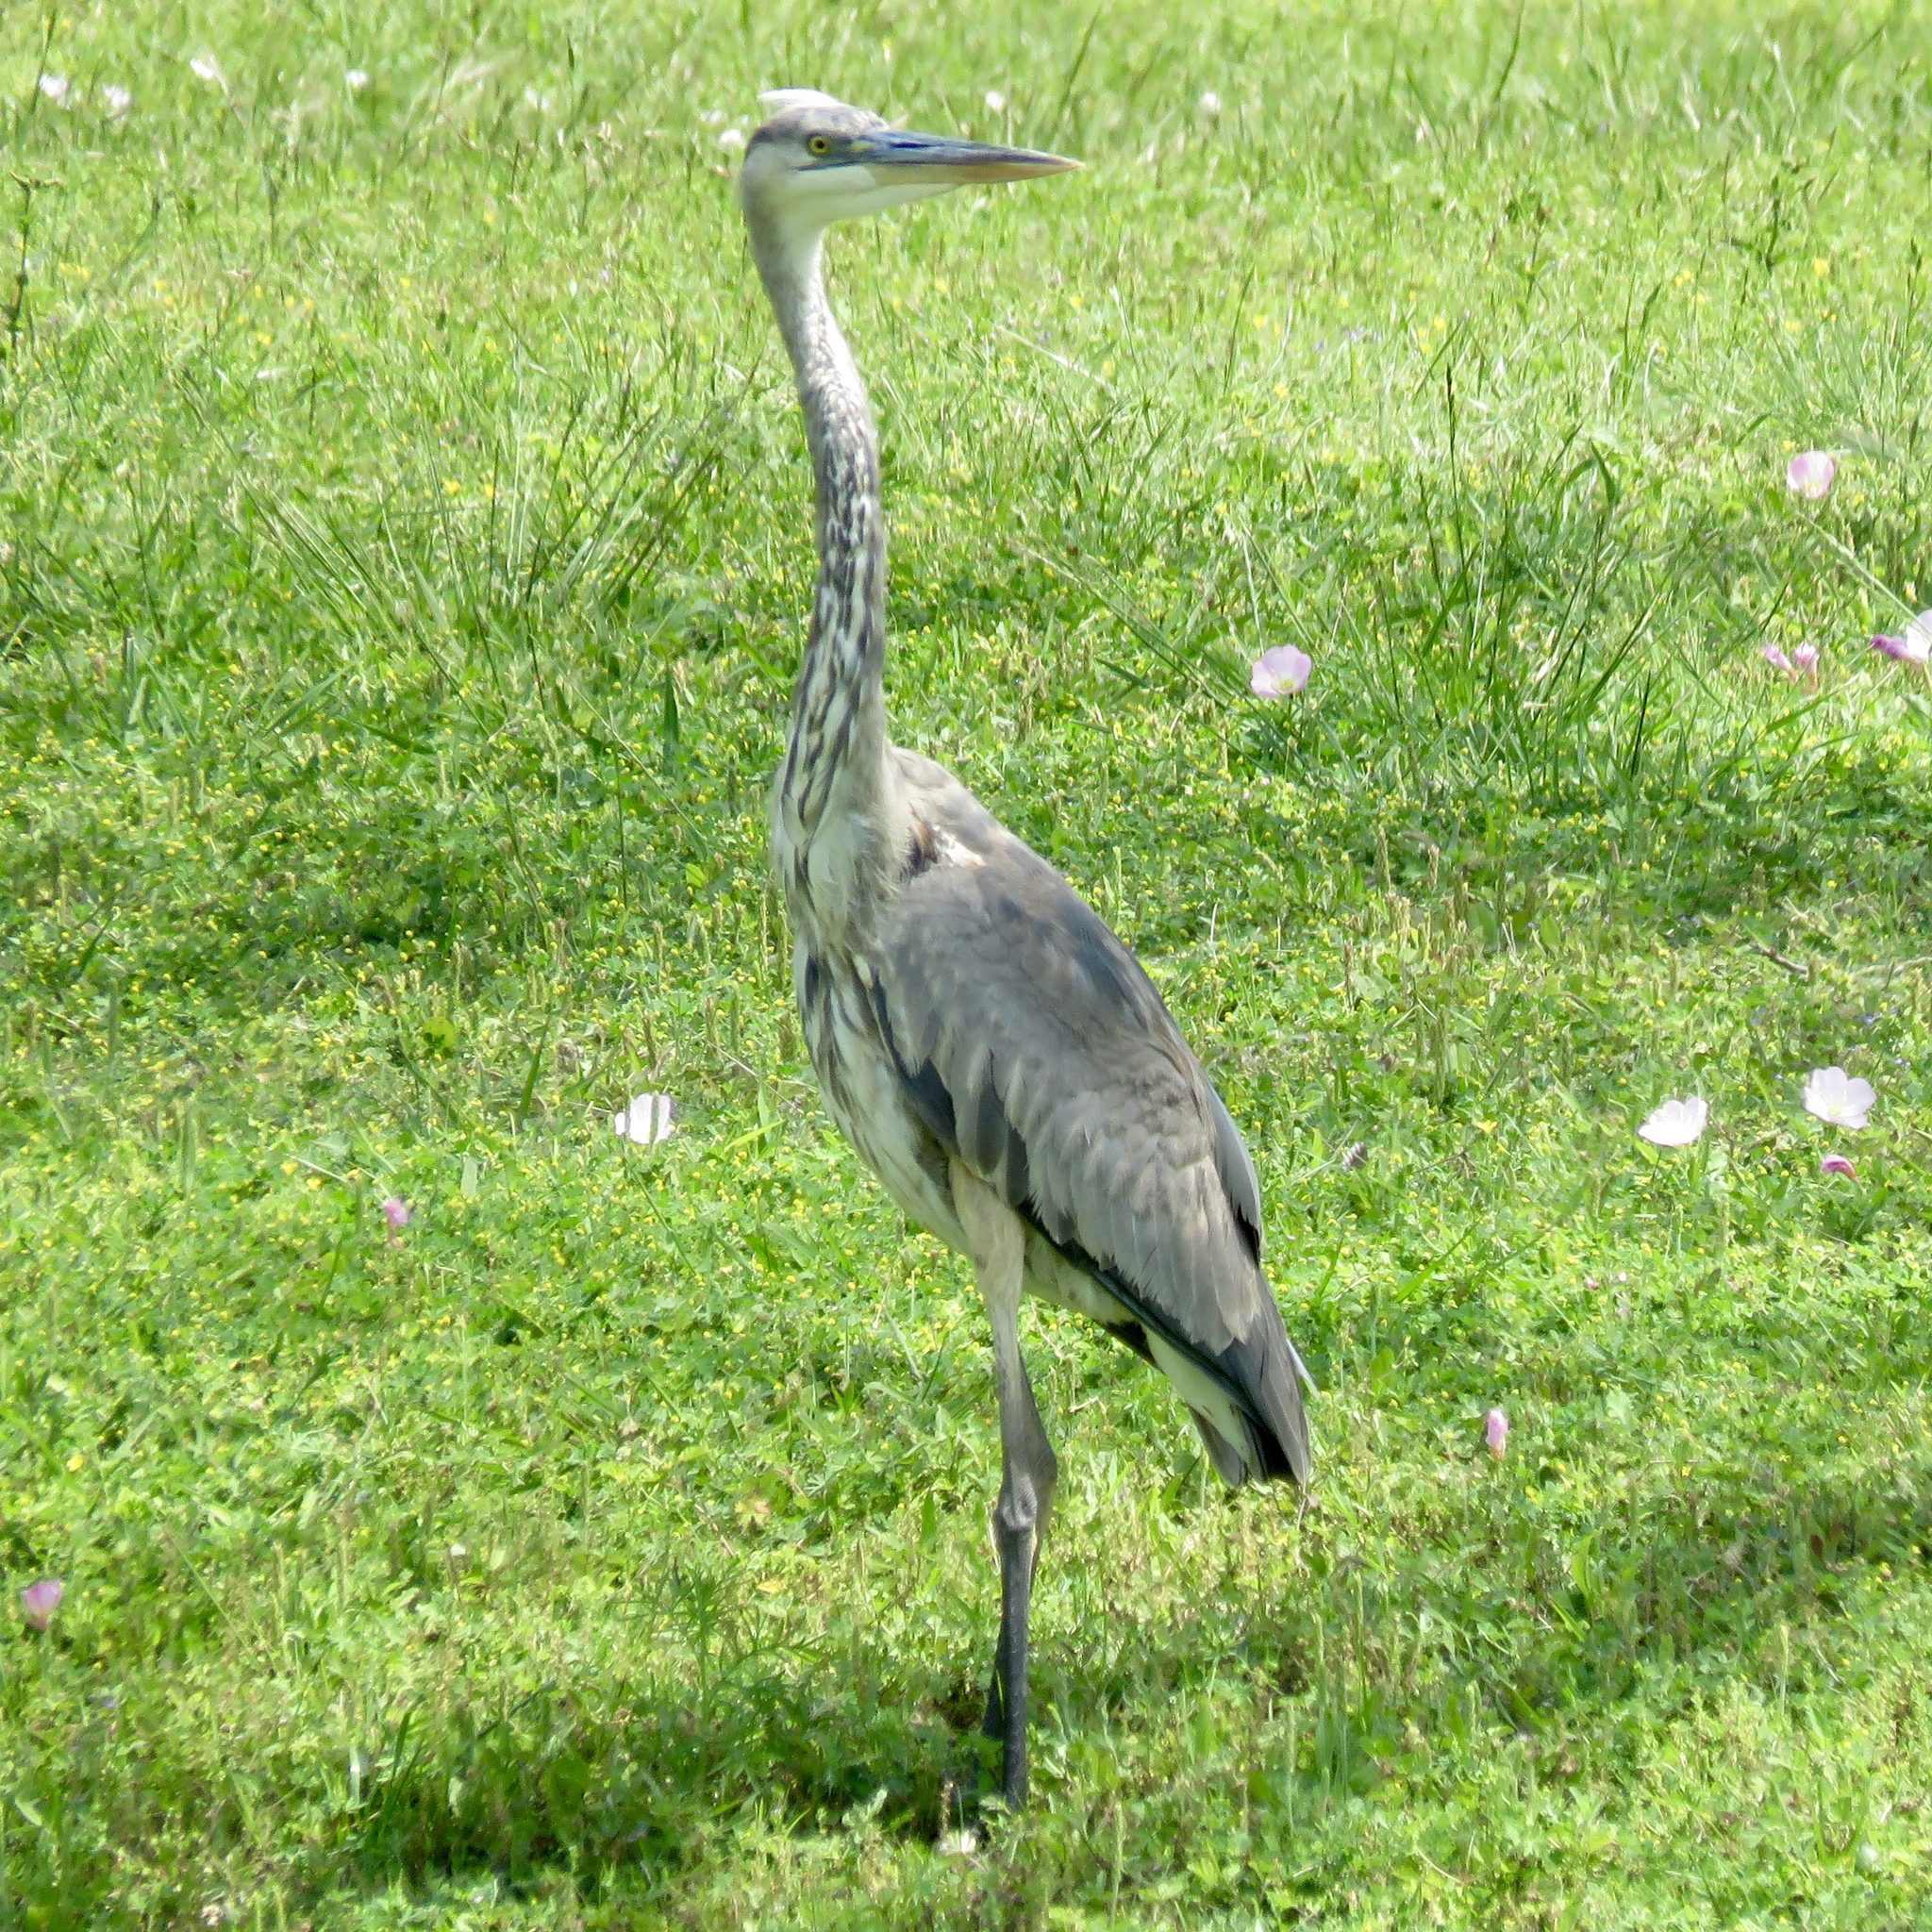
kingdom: Animalia
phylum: Chordata
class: Aves
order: Pelecaniformes
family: Ardeidae
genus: Ardea
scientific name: Ardea herodias
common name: Great blue heron
